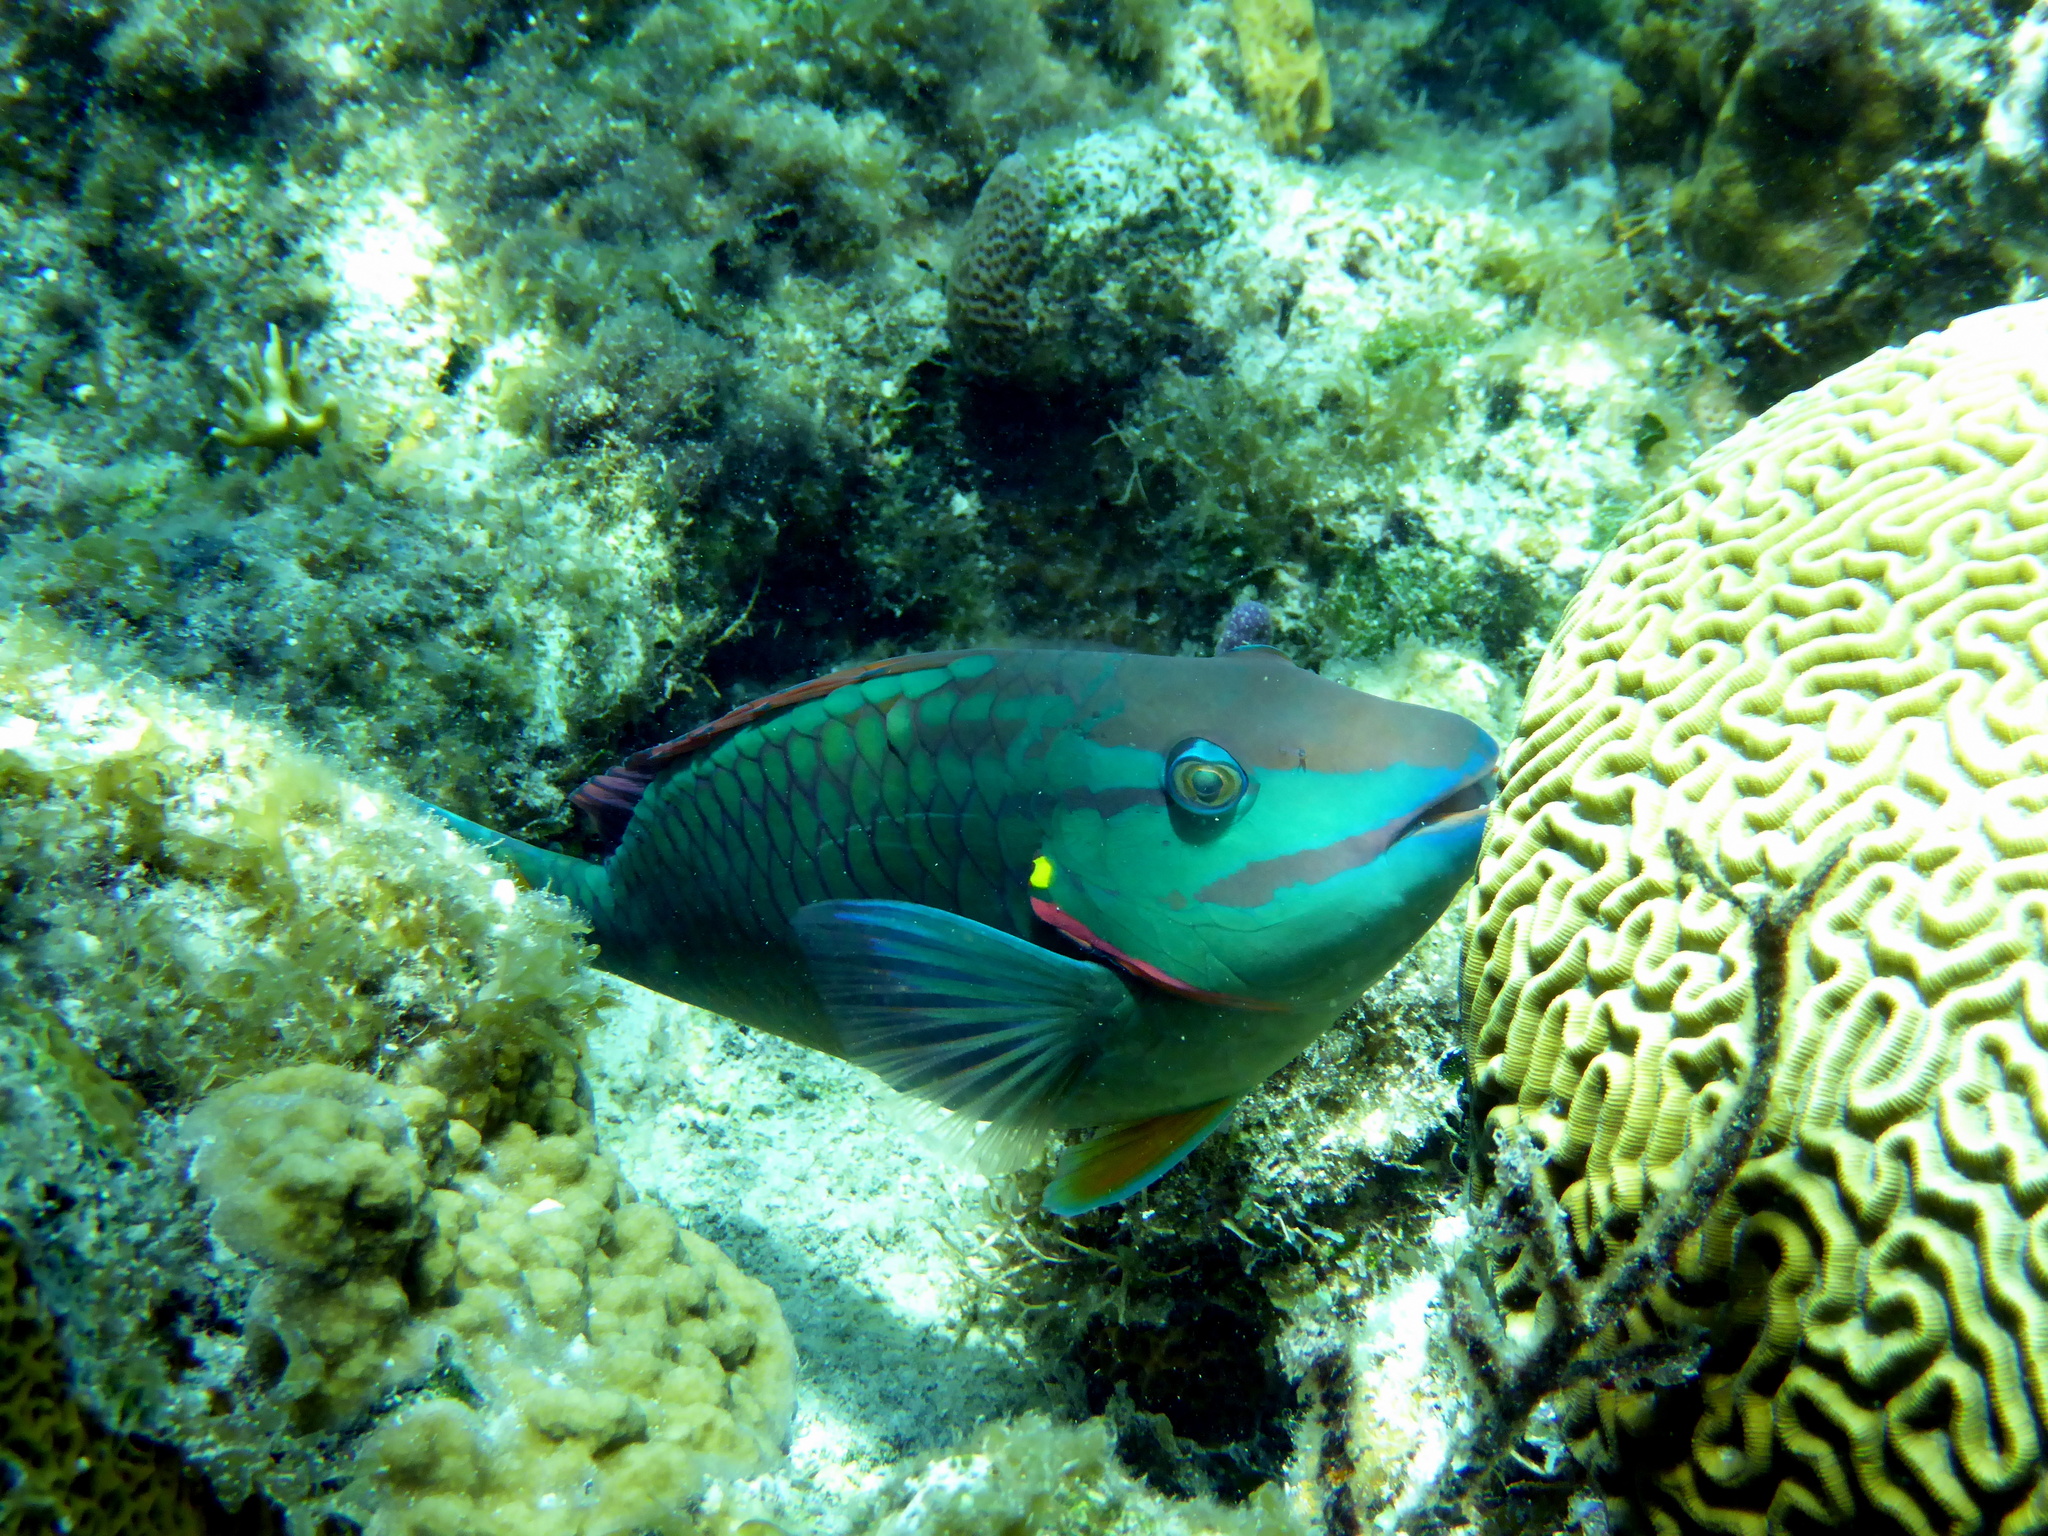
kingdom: Animalia
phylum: Chordata
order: Perciformes
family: Scaridae
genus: Sparisoma
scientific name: Sparisoma viride
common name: Stoplight parrotfish
